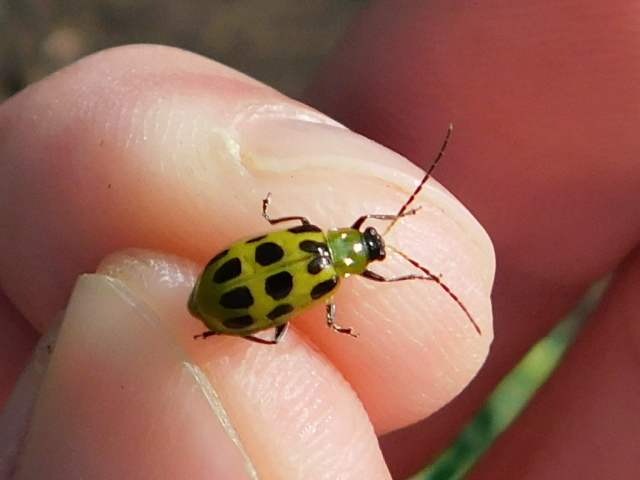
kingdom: Animalia
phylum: Arthropoda
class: Insecta
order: Coleoptera
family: Chrysomelidae
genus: Diabrotica
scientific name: Diabrotica undecimpunctata
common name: Spotted cucumber beetle
